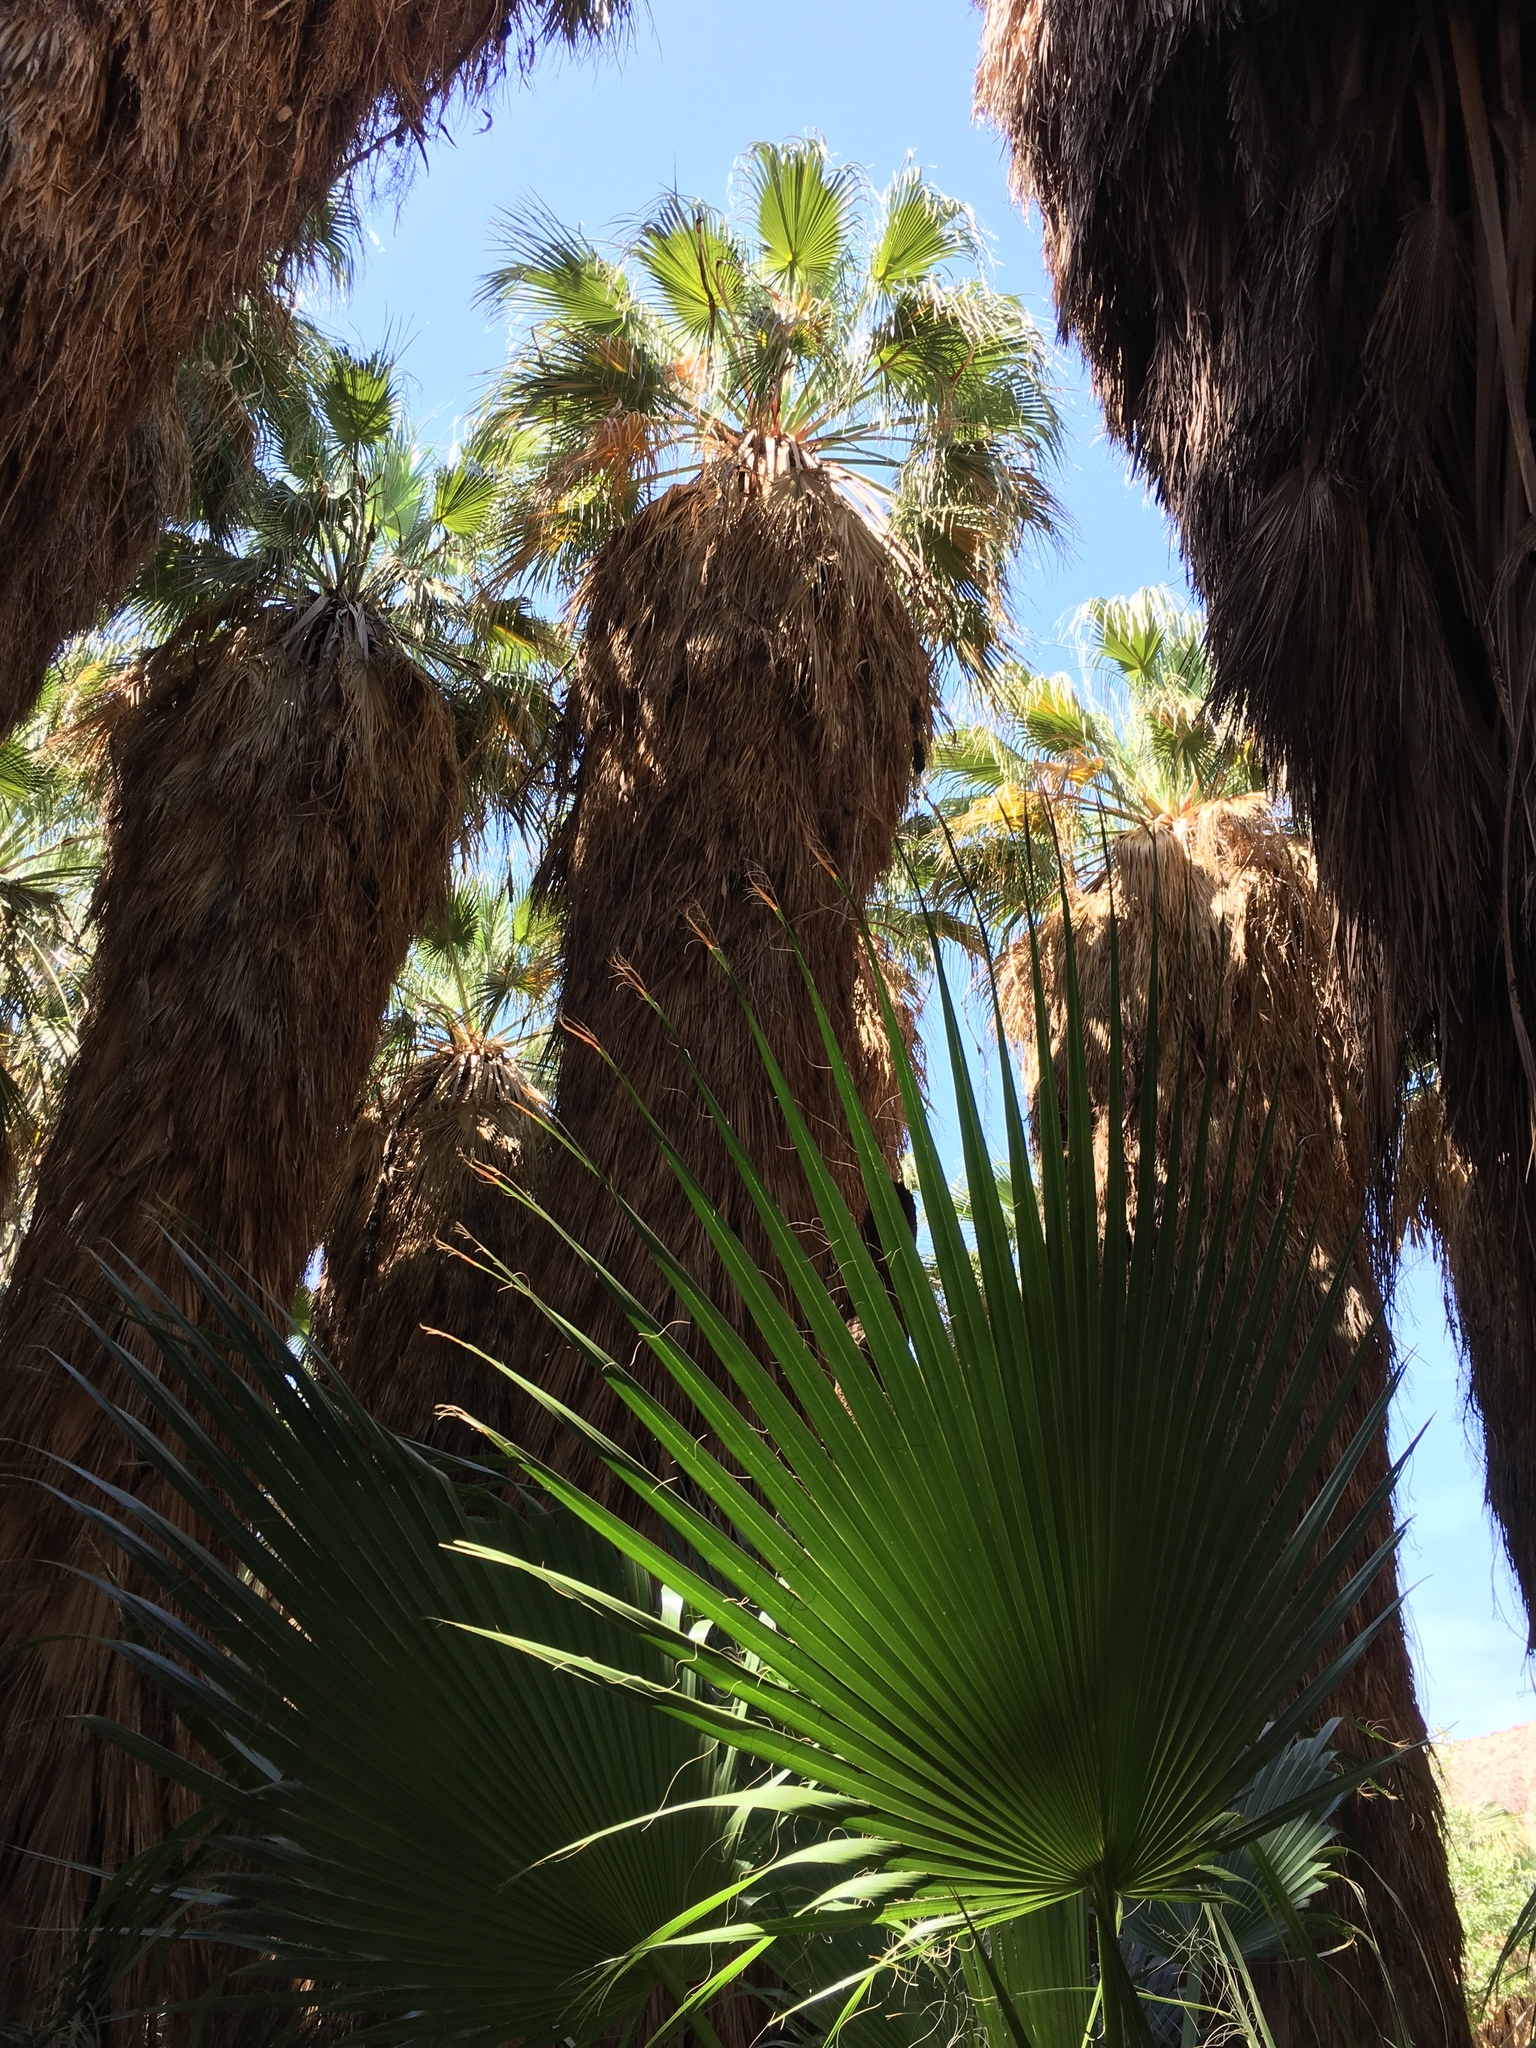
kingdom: Plantae
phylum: Tracheophyta
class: Liliopsida
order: Arecales
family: Arecaceae
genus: Washingtonia
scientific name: Washingtonia filifera
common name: California fan palm
